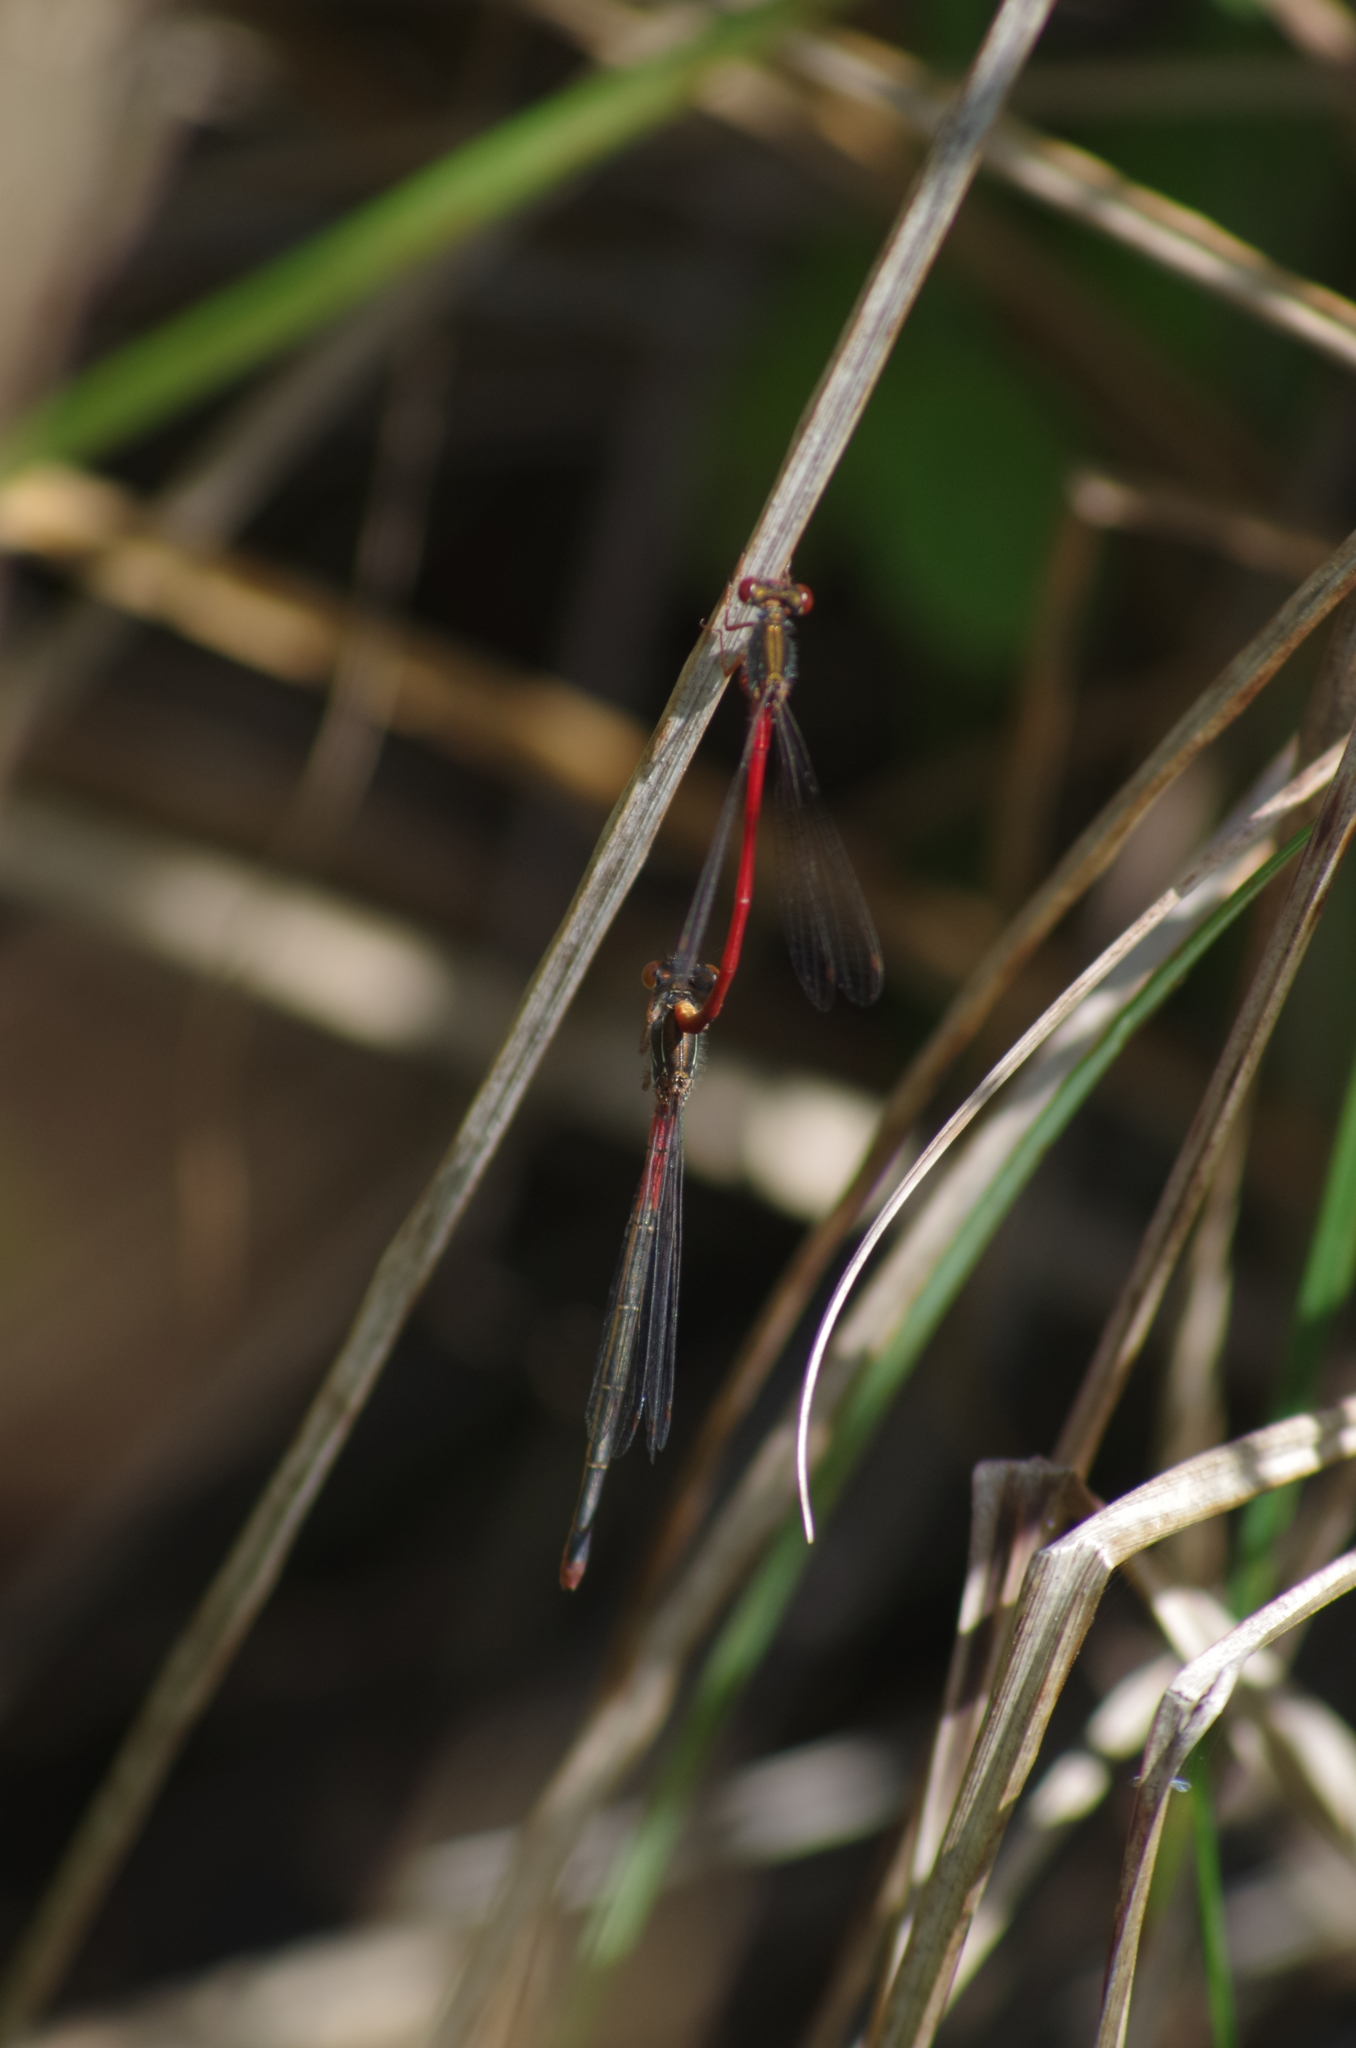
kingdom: Animalia
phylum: Arthropoda
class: Insecta
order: Odonata
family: Coenagrionidae
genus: Ceriagrion
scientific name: Ceriagrion tenellum
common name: Small red damselfly
